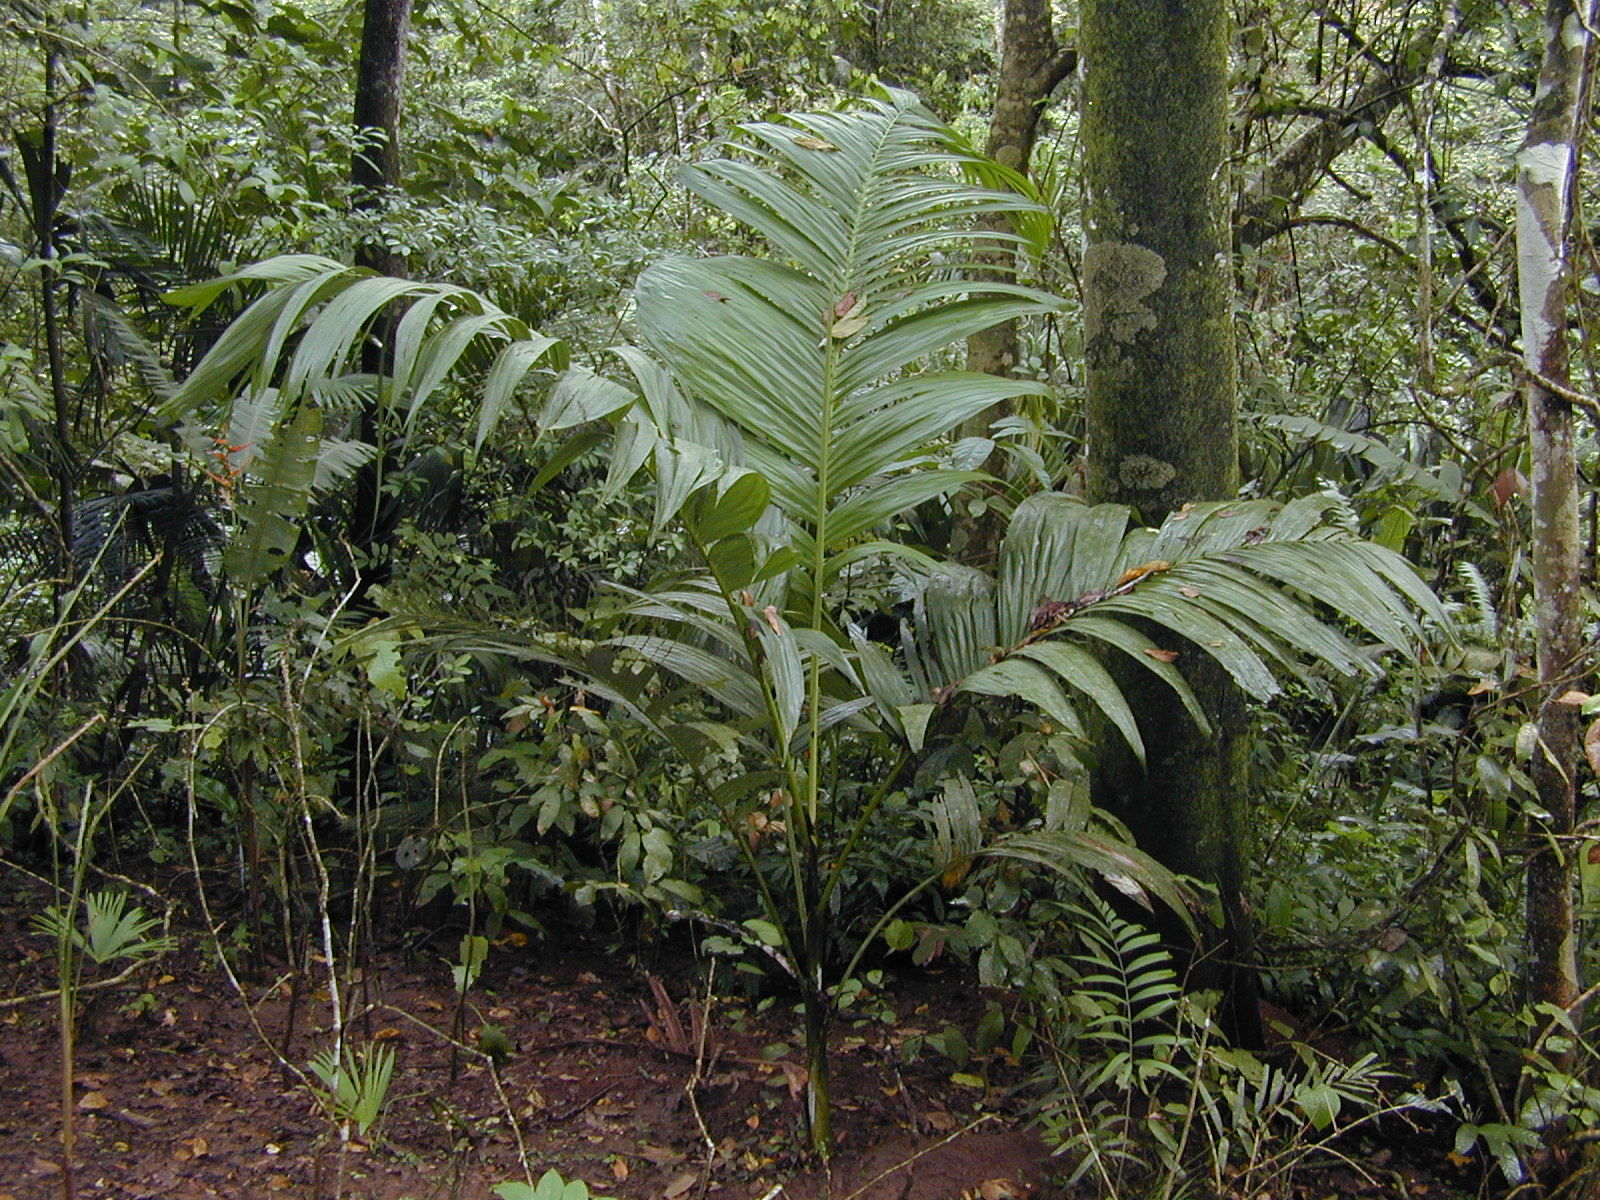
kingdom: Plantae
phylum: Tracheophyta
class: Liliopsida
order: Arecales
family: Arecaceae
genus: Bentinckia
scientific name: Bentinckia nicobarica
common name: Nicobar palm
